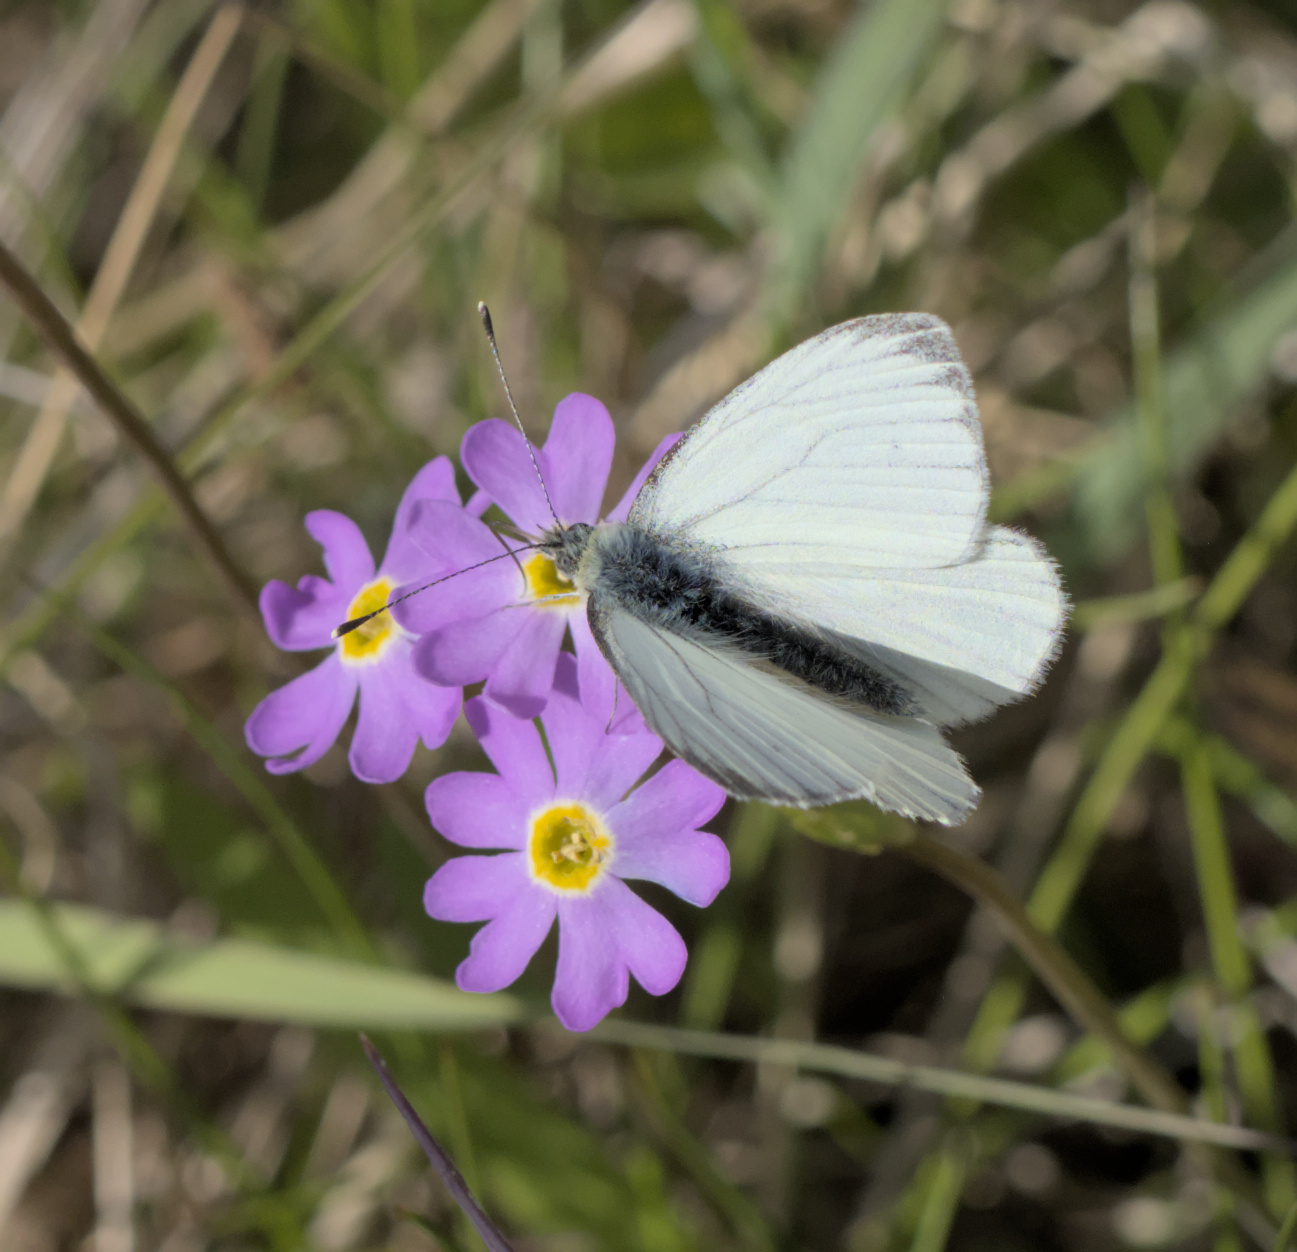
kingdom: Animalia
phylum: Arthropoda
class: Insecta
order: Lepidoptera
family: Pieridae
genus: Pieris
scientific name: Pieris napi
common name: Green-veined white
